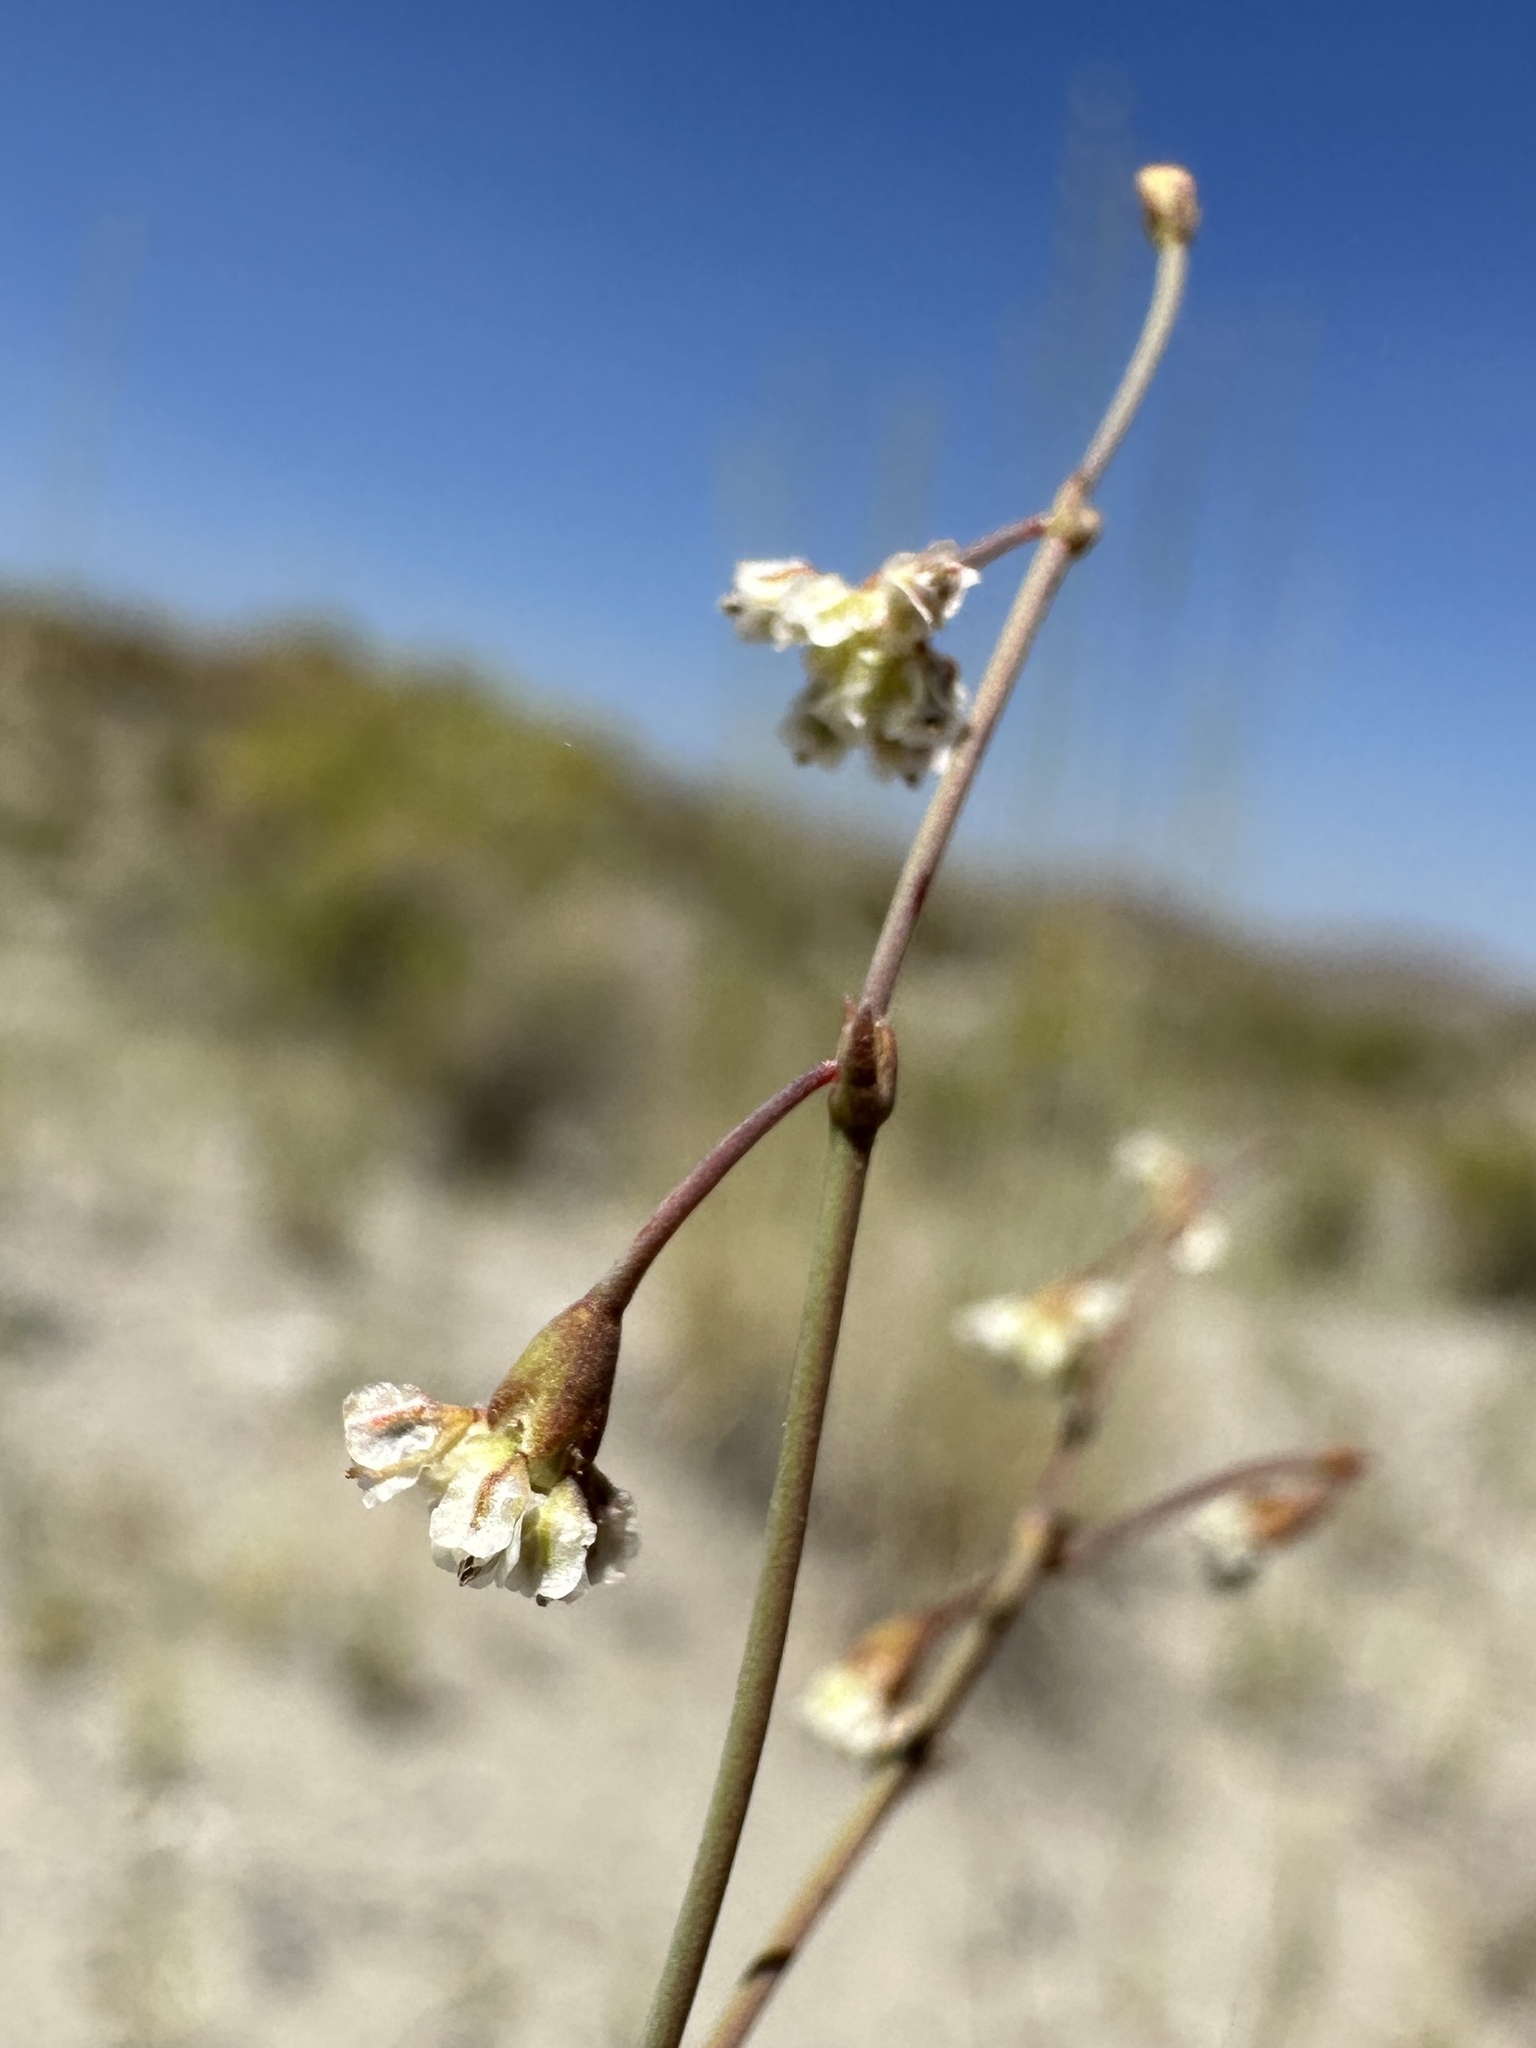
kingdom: Plantae
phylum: Tracheophyta
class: Magnoliopsida
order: Caryophyllales
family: Polygonaceae
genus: Eriogonum
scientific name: Eriogonum cernuum
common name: Nodding wild buckwheat
